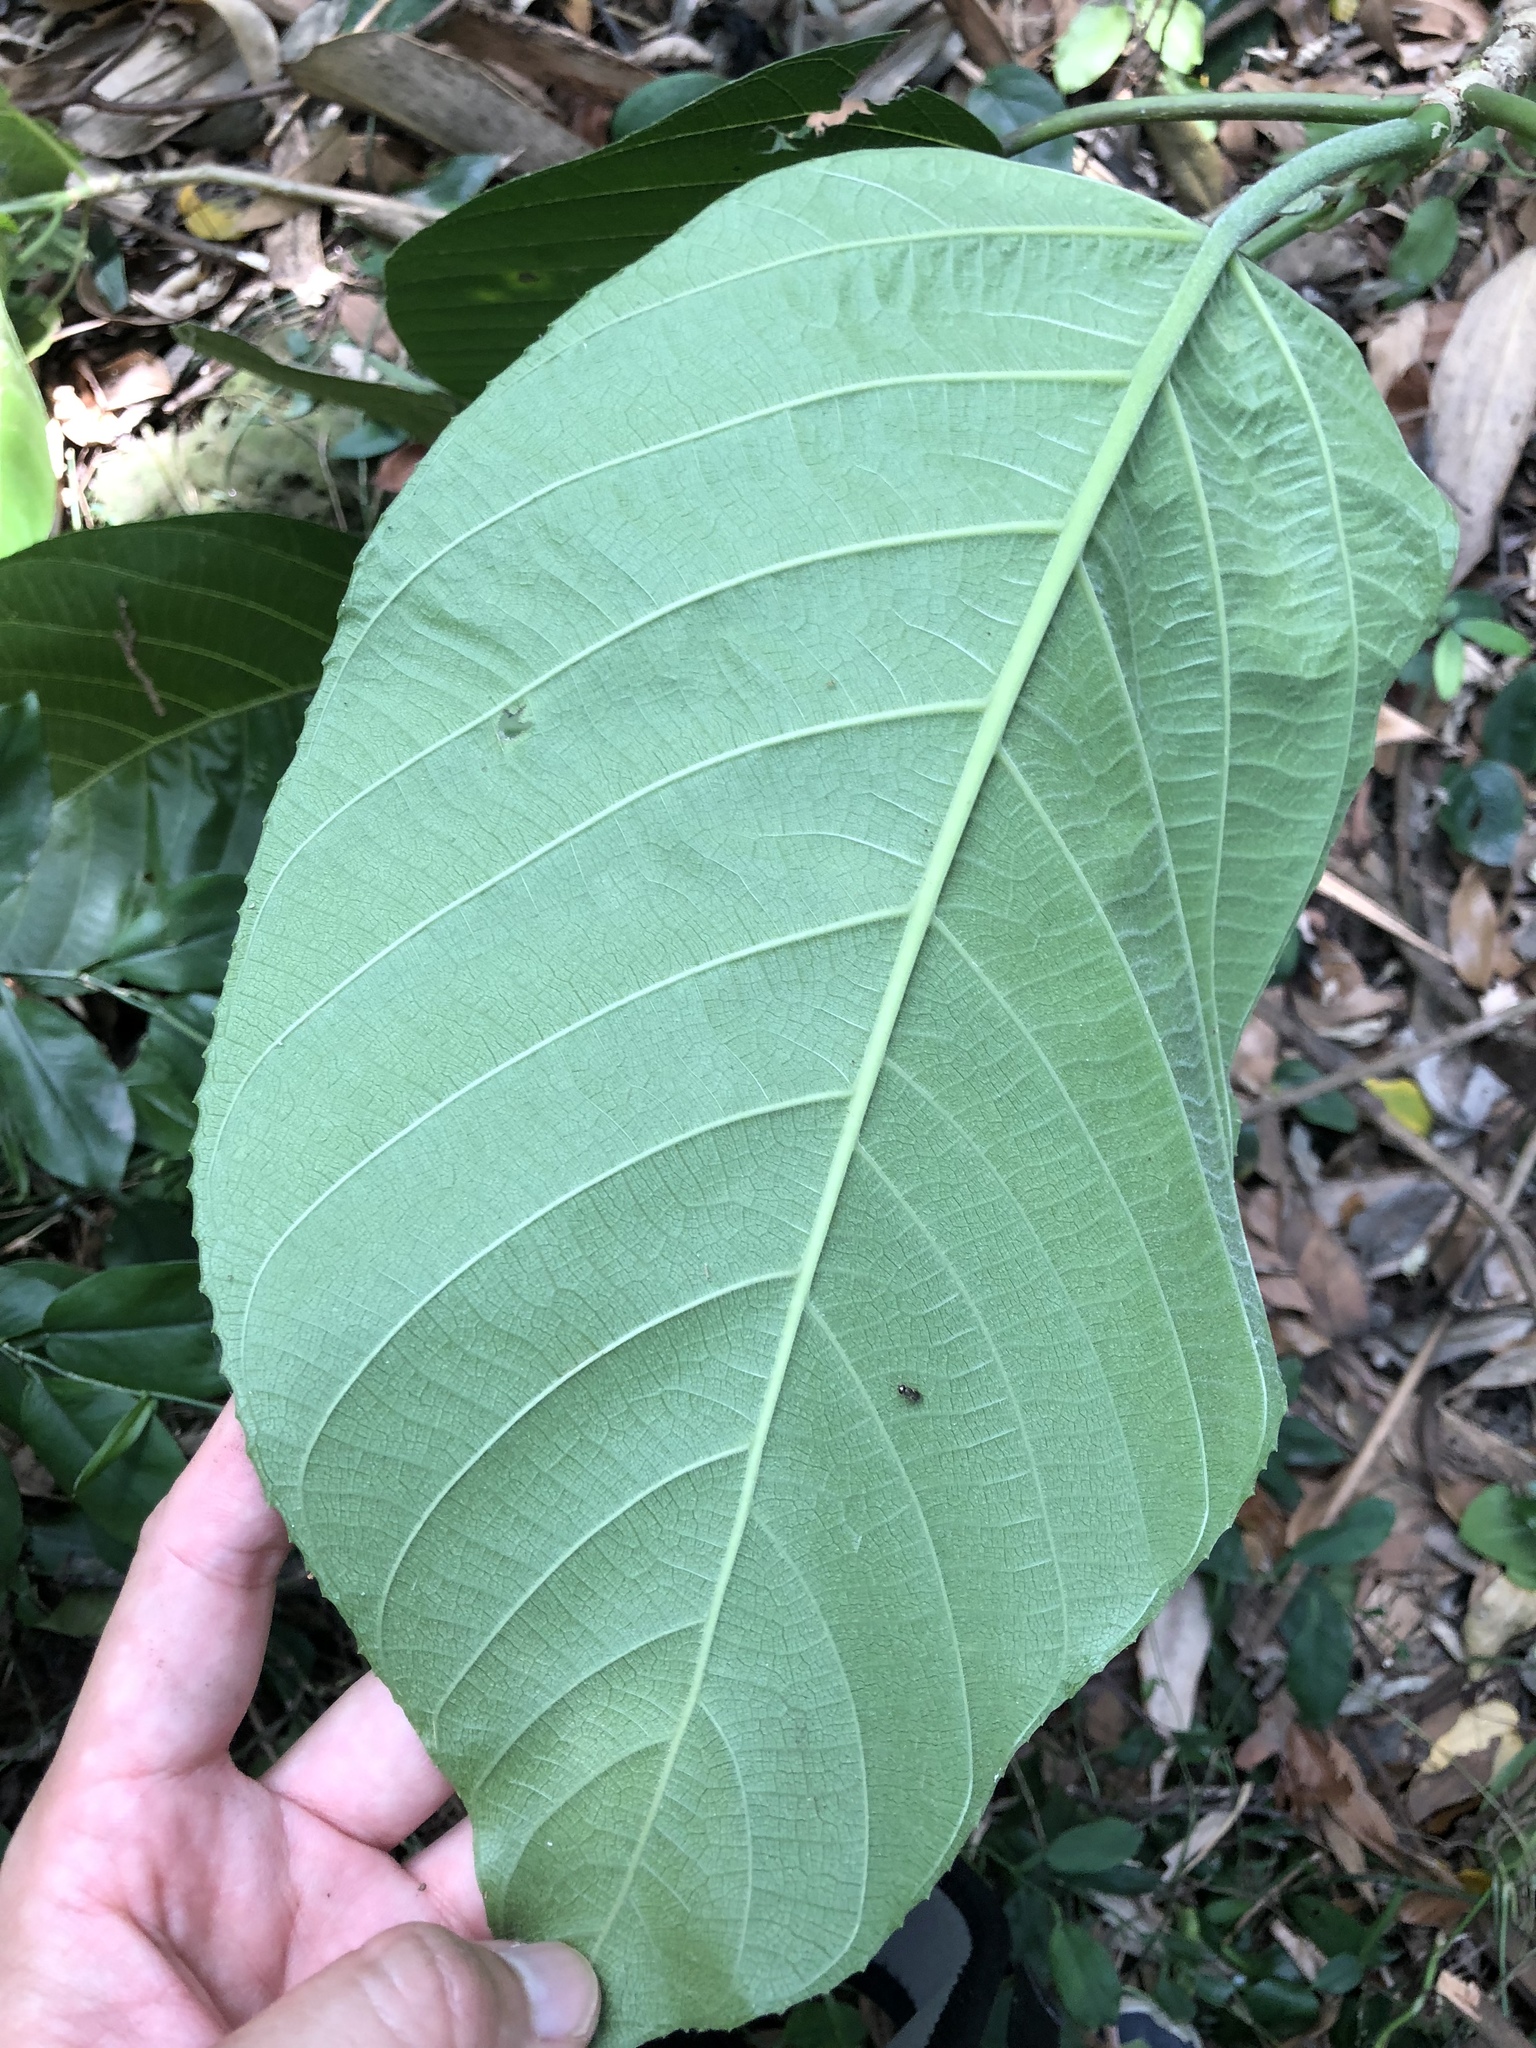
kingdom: Plantae
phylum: Tracheophyta
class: Magnoliopsida
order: Rosales
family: Urticaceae
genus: Dendrocnide
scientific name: Dendrocnide meyeniana
